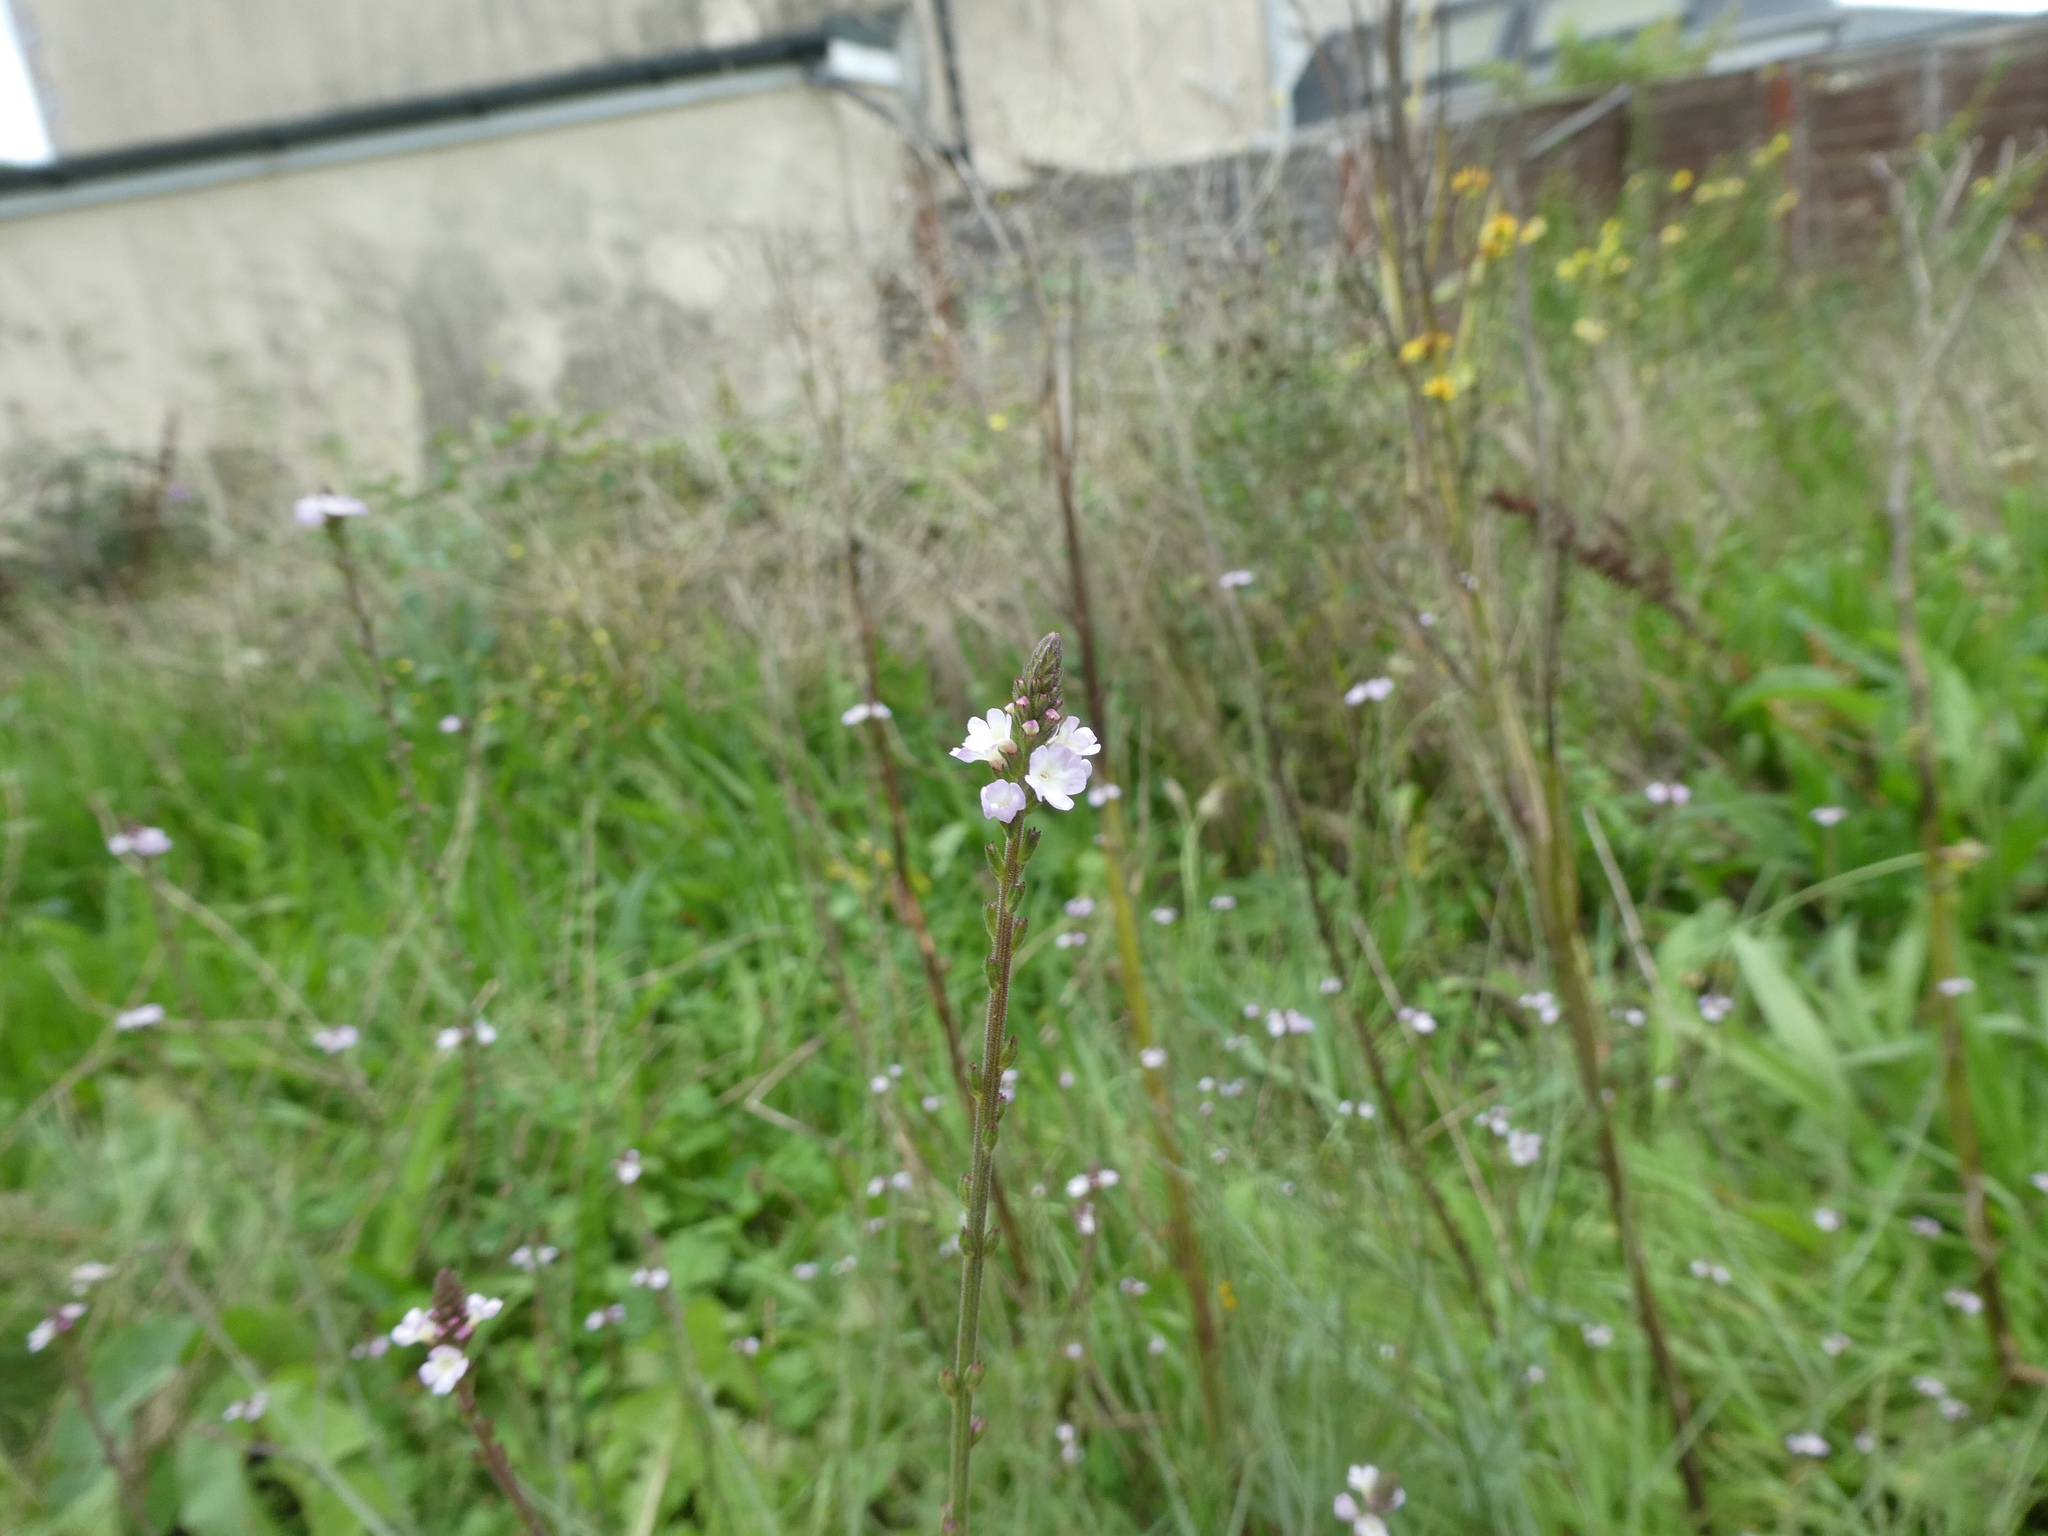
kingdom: Plantae
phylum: Tracheophyta
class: Magnoliopsida
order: Lamiales
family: Verbenaceae
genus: Verbena
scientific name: Verbena officinalis
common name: Vervain
